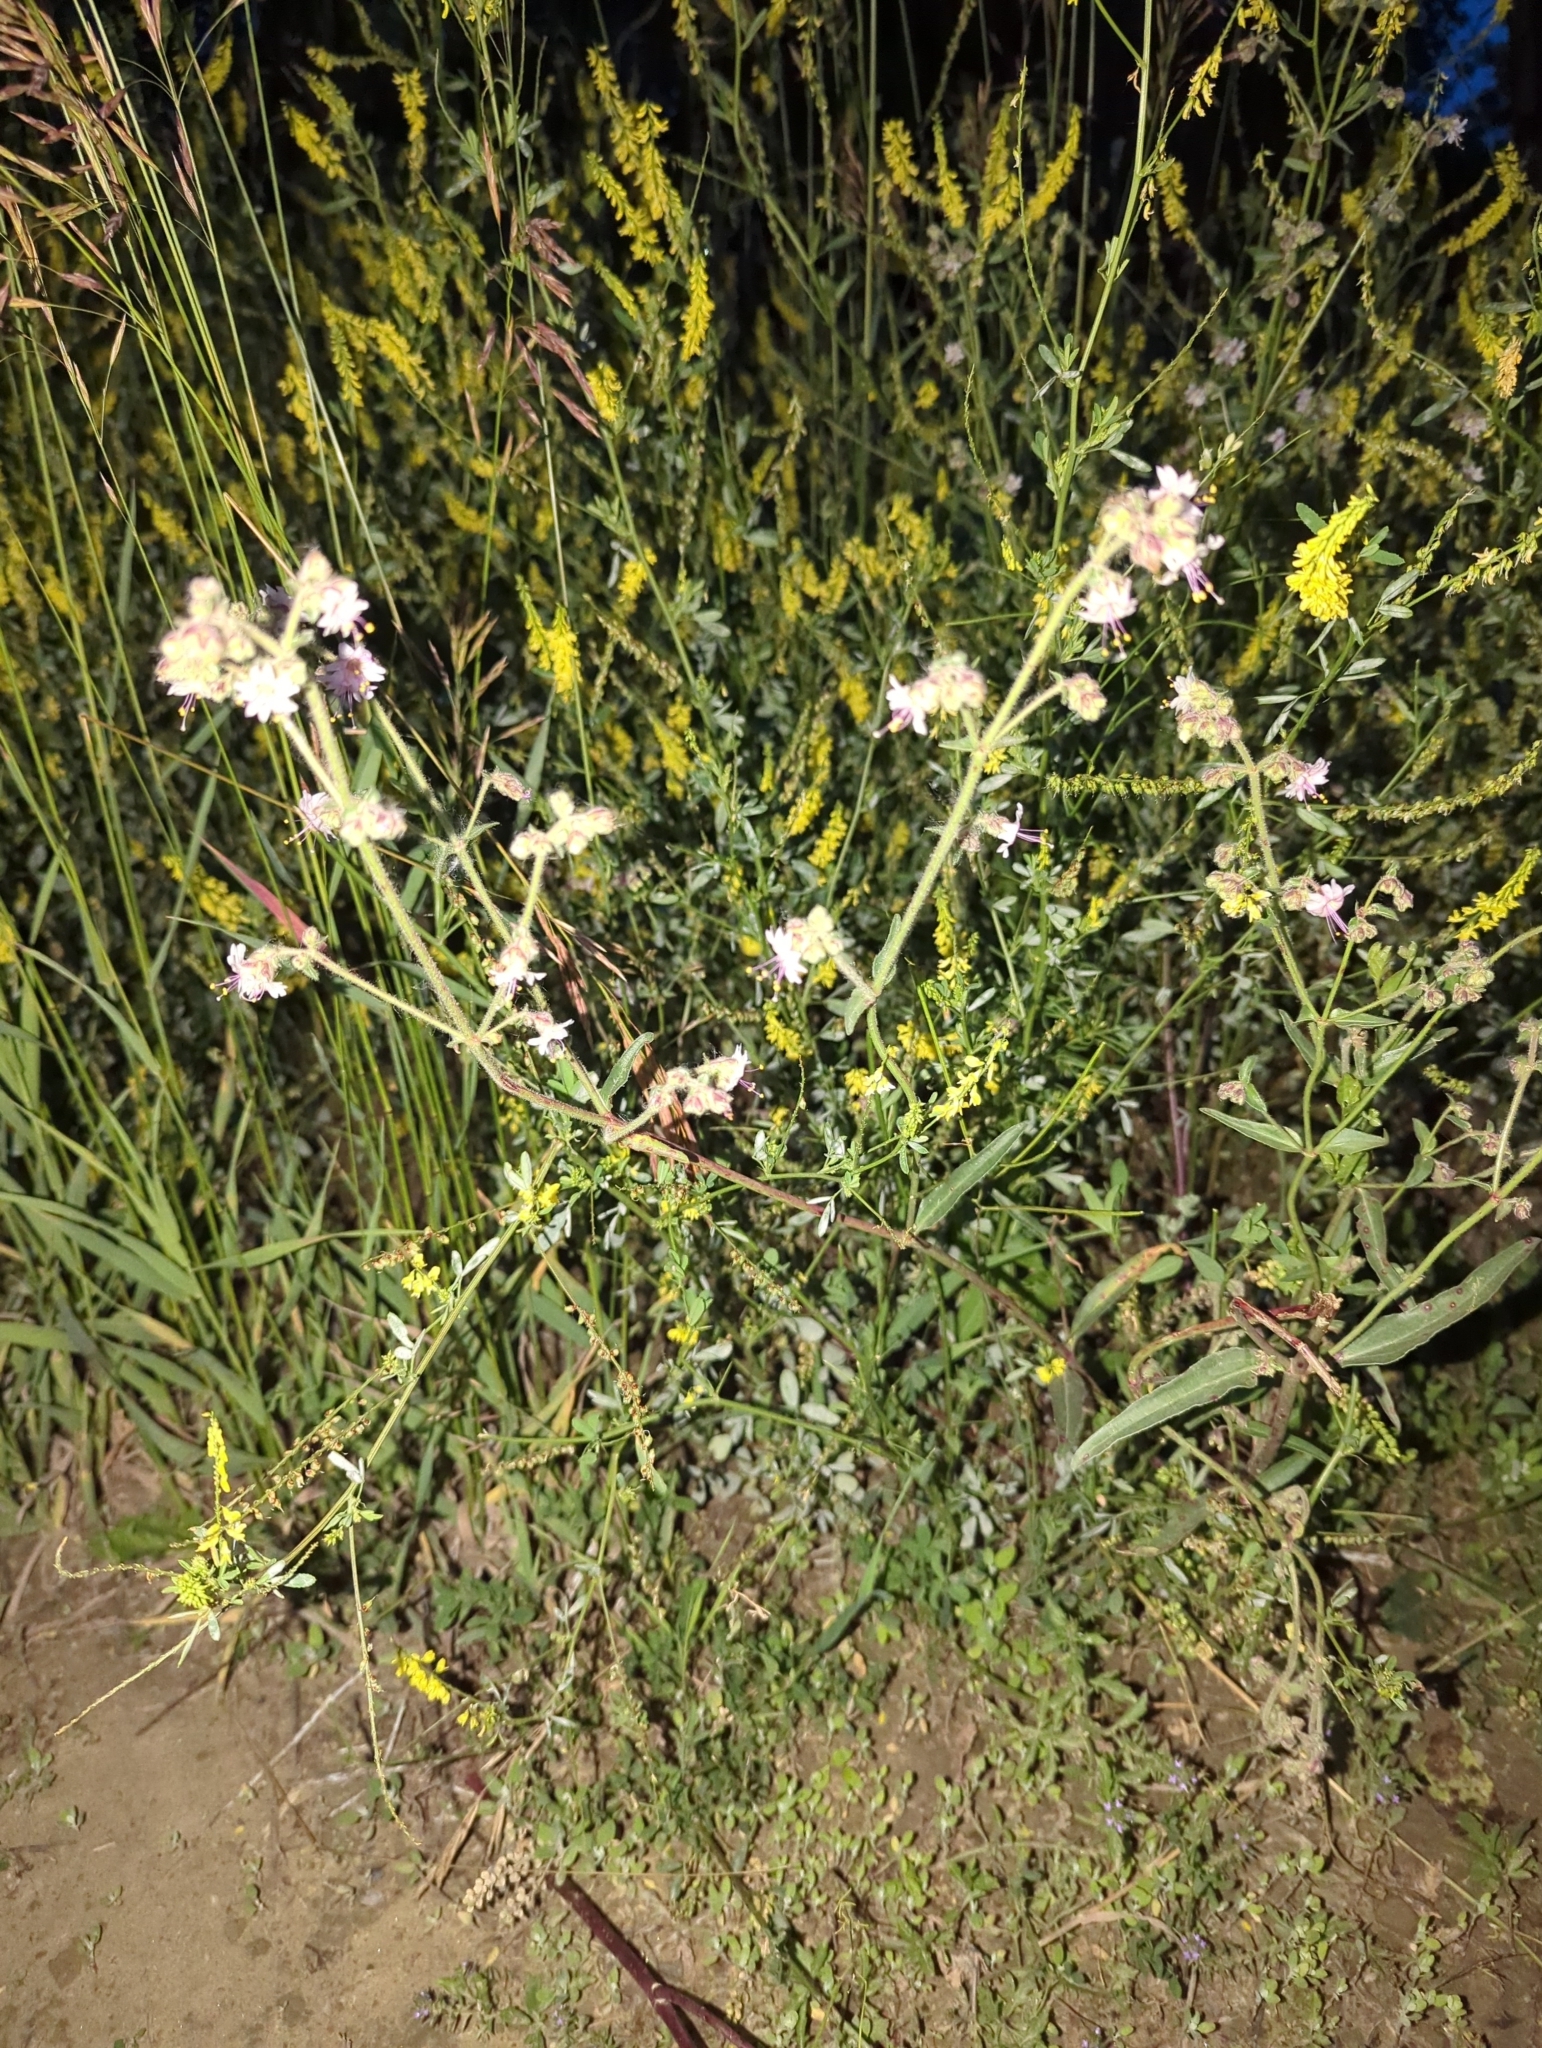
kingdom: Plantae
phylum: Tracheophyta
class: Magnoliopsida
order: Caryophyllales
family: Nyctaginaceae
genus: Mirabilis
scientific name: Mirabilis linearis
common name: Linear-leaved four-o'clock
